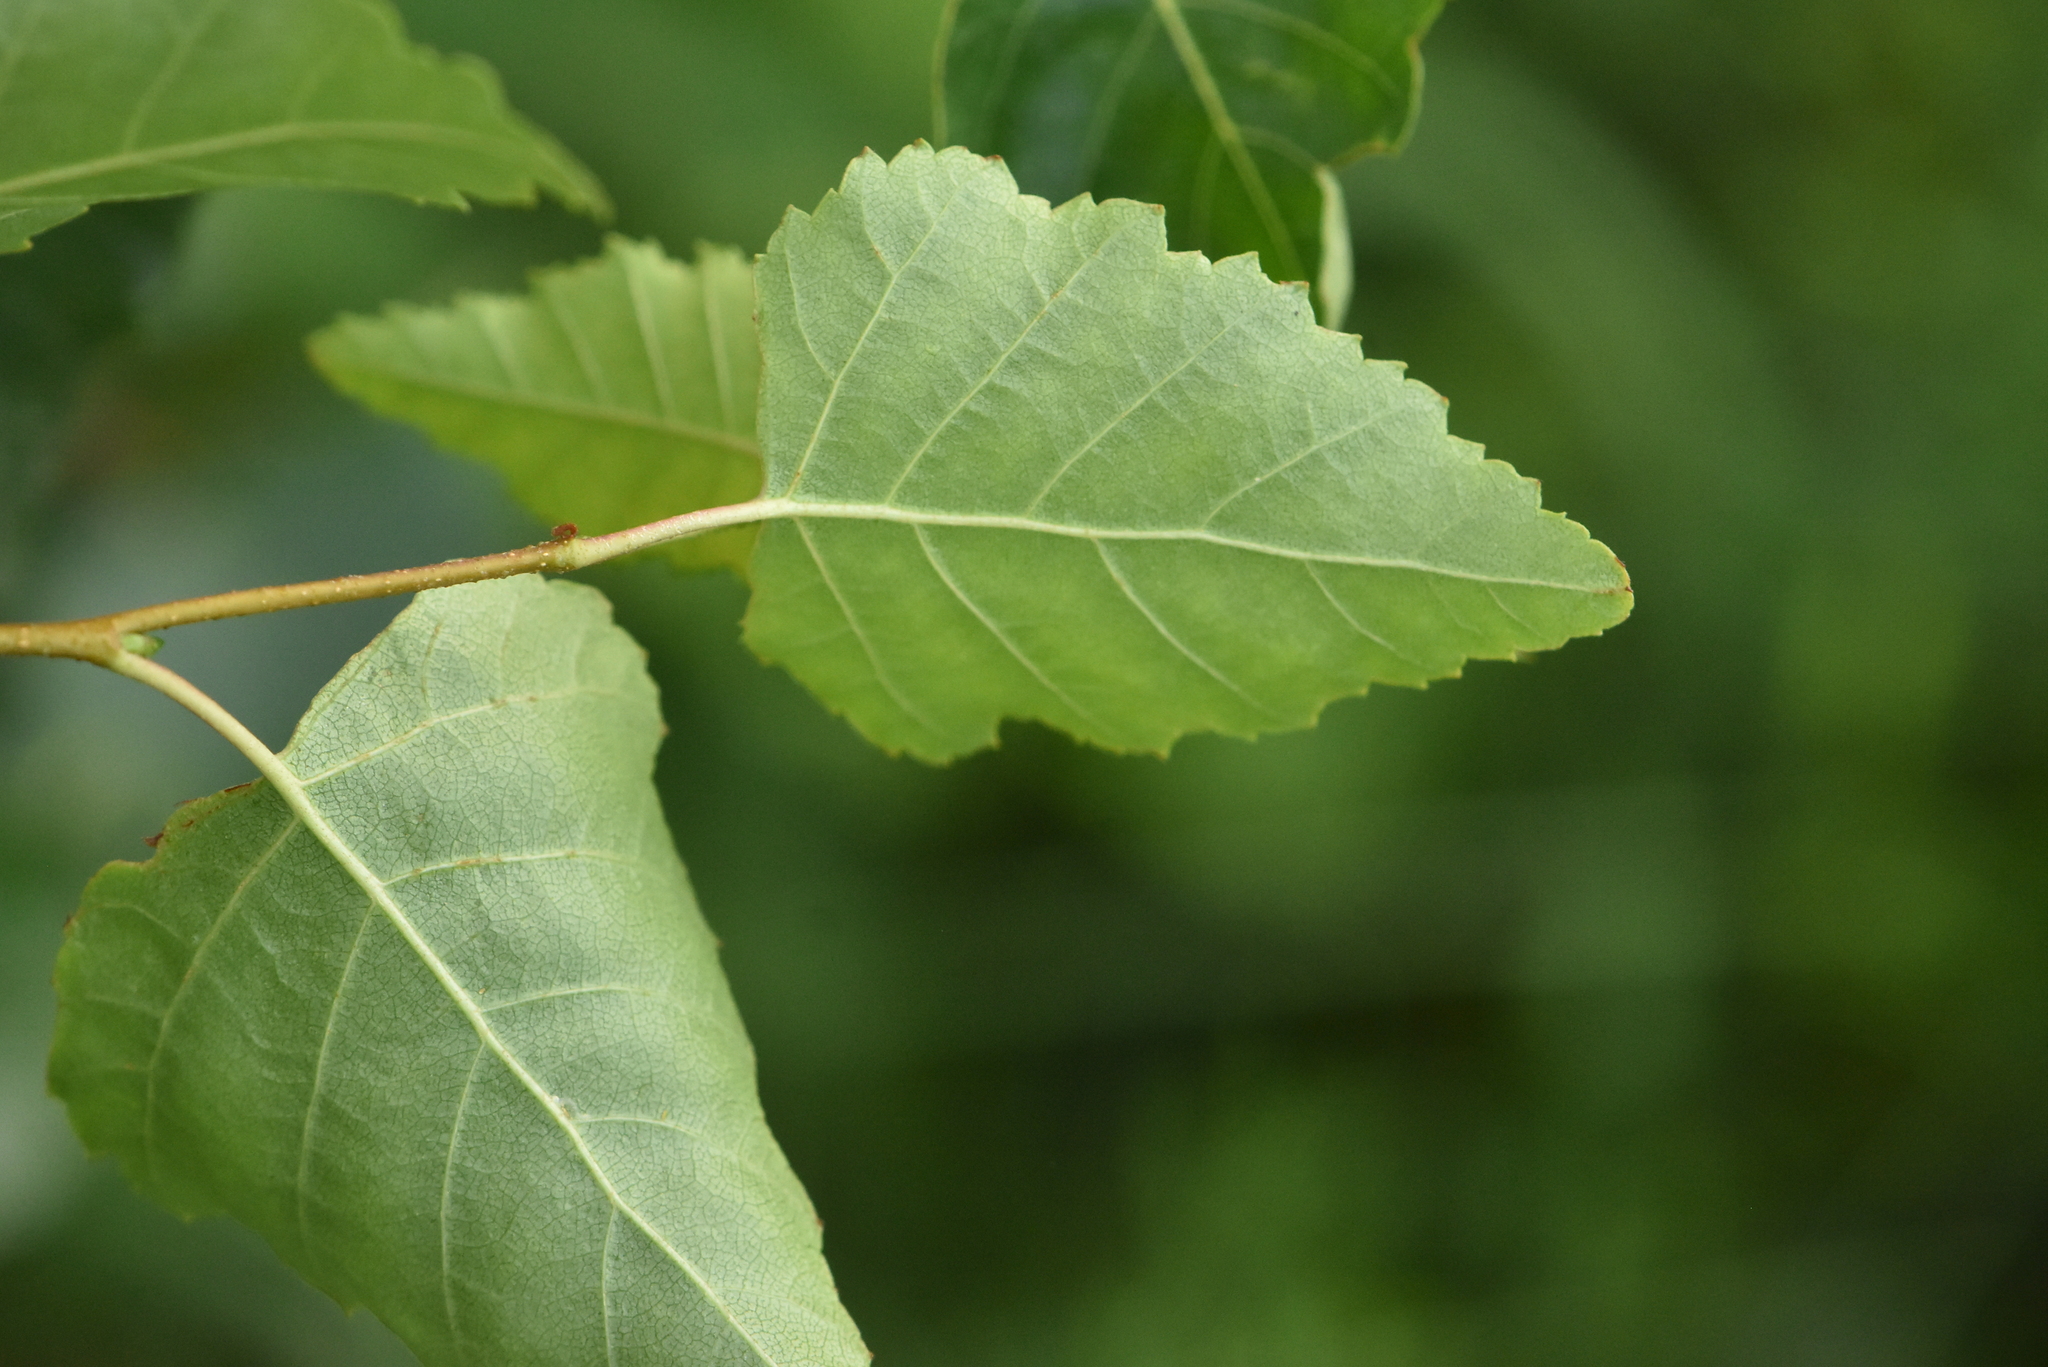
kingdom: Plantae
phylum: Tracheophyta
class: Magnoliopsida
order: Fagales
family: Betulaceae
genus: Betula
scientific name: Betula pendula
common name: Silver birch
